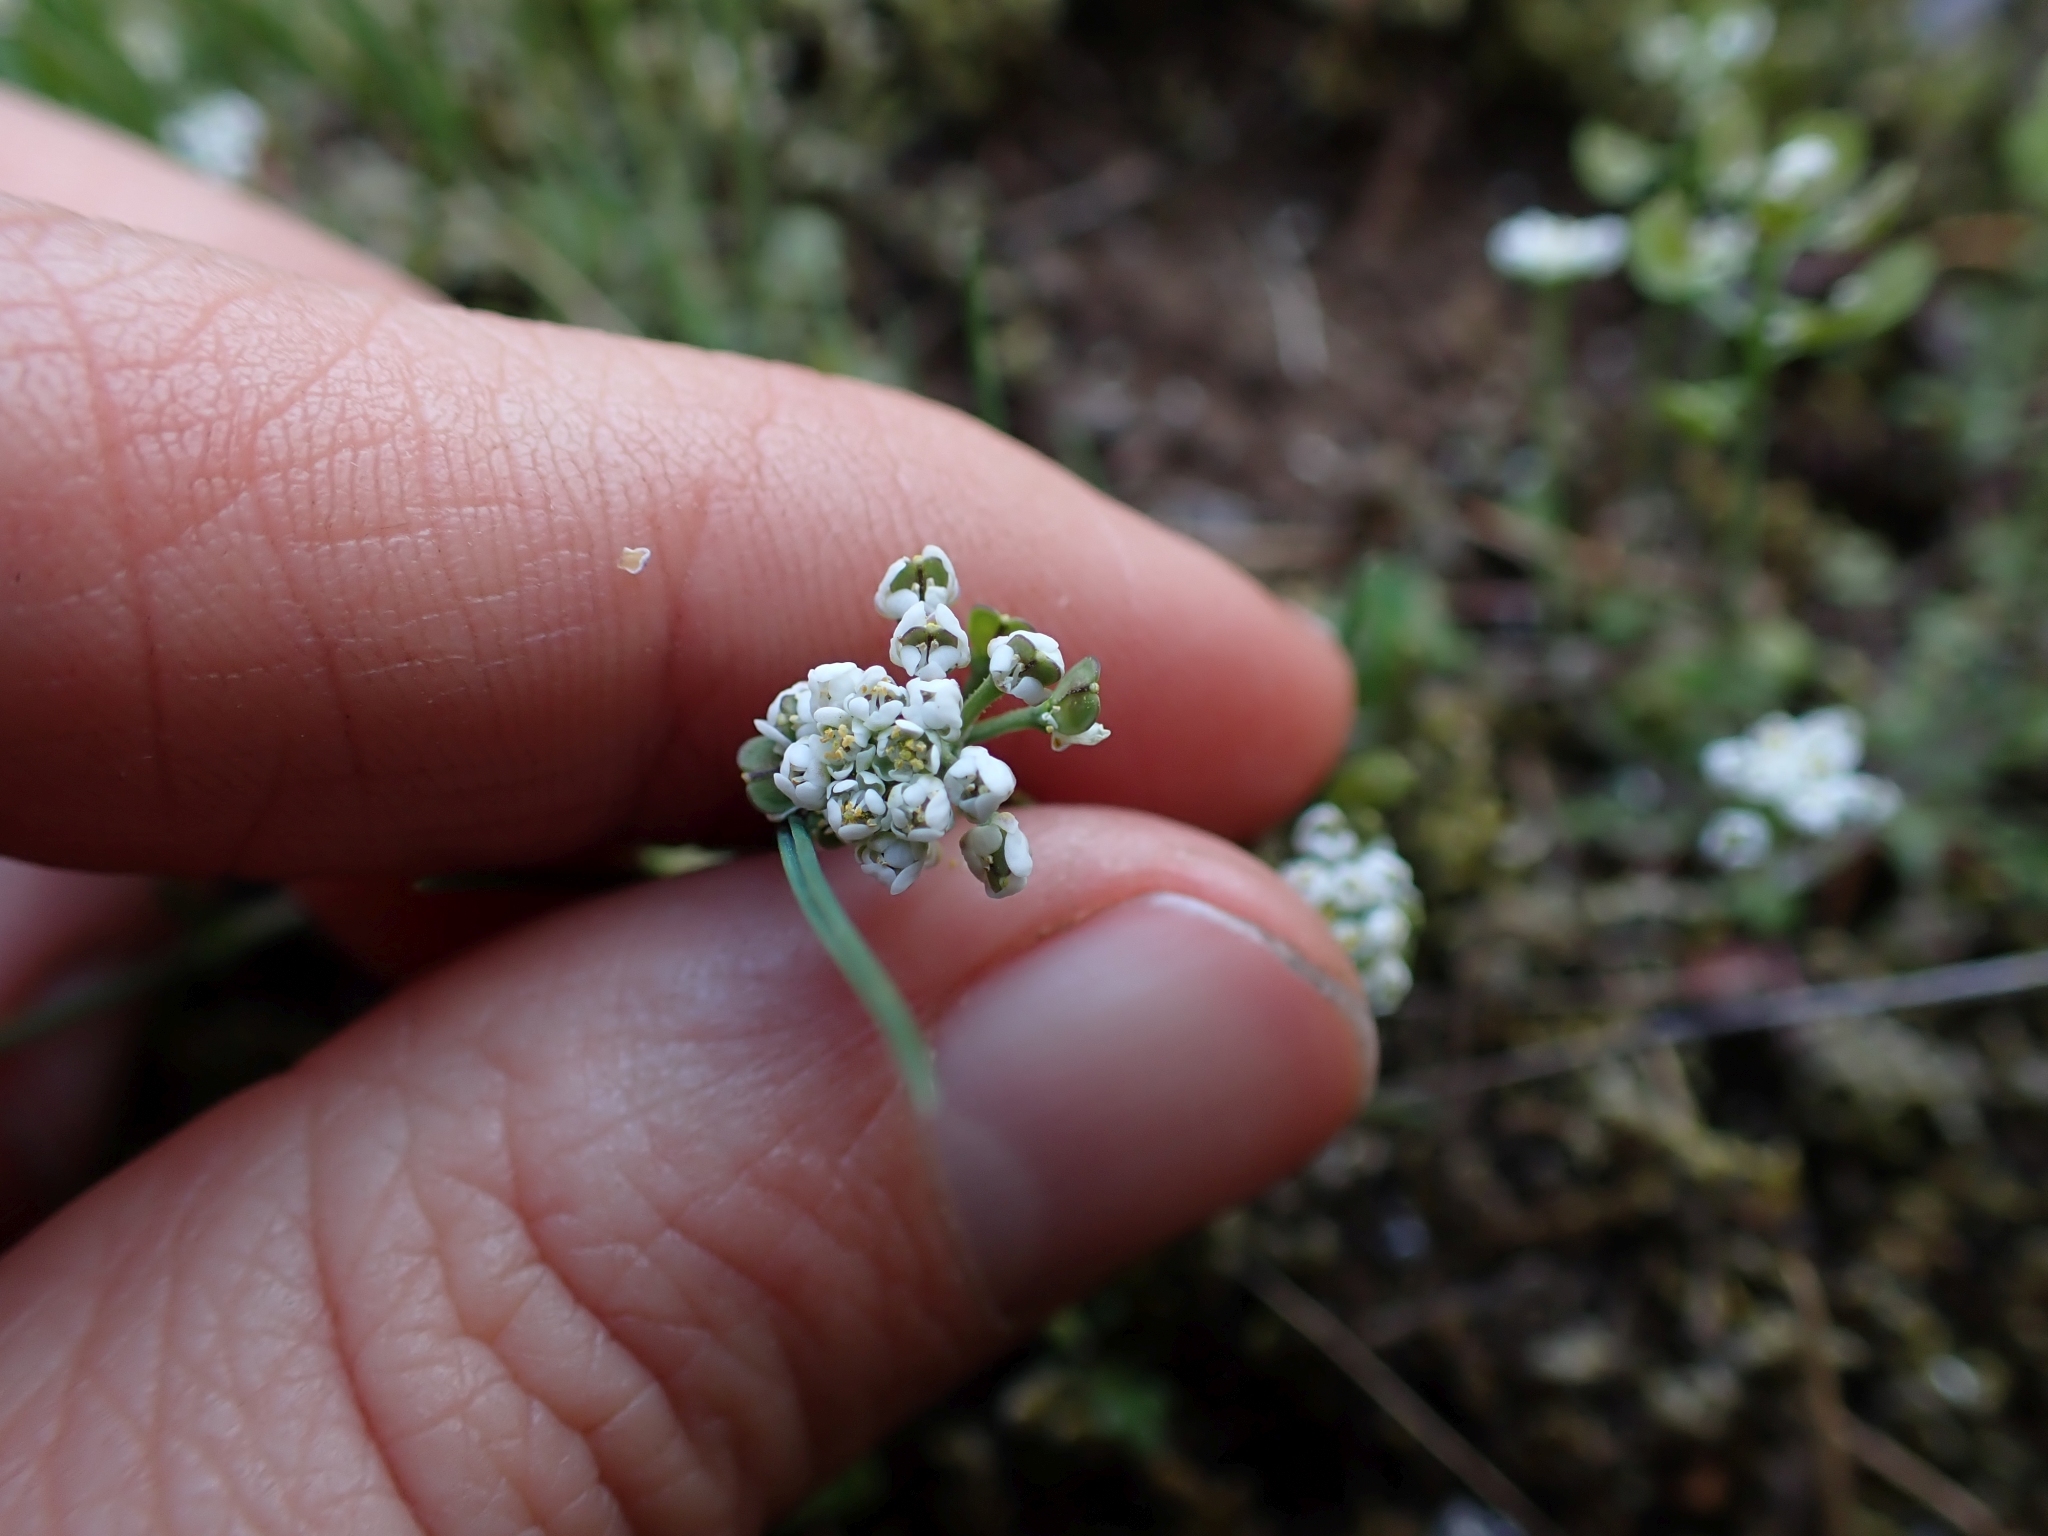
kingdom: Plantae
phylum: Tracheophyta
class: Magnoliopsida
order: Brassicales
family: Brassicaceae
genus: Teesdalia
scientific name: Teesdalia nudicaulis
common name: Shepherd's cress
